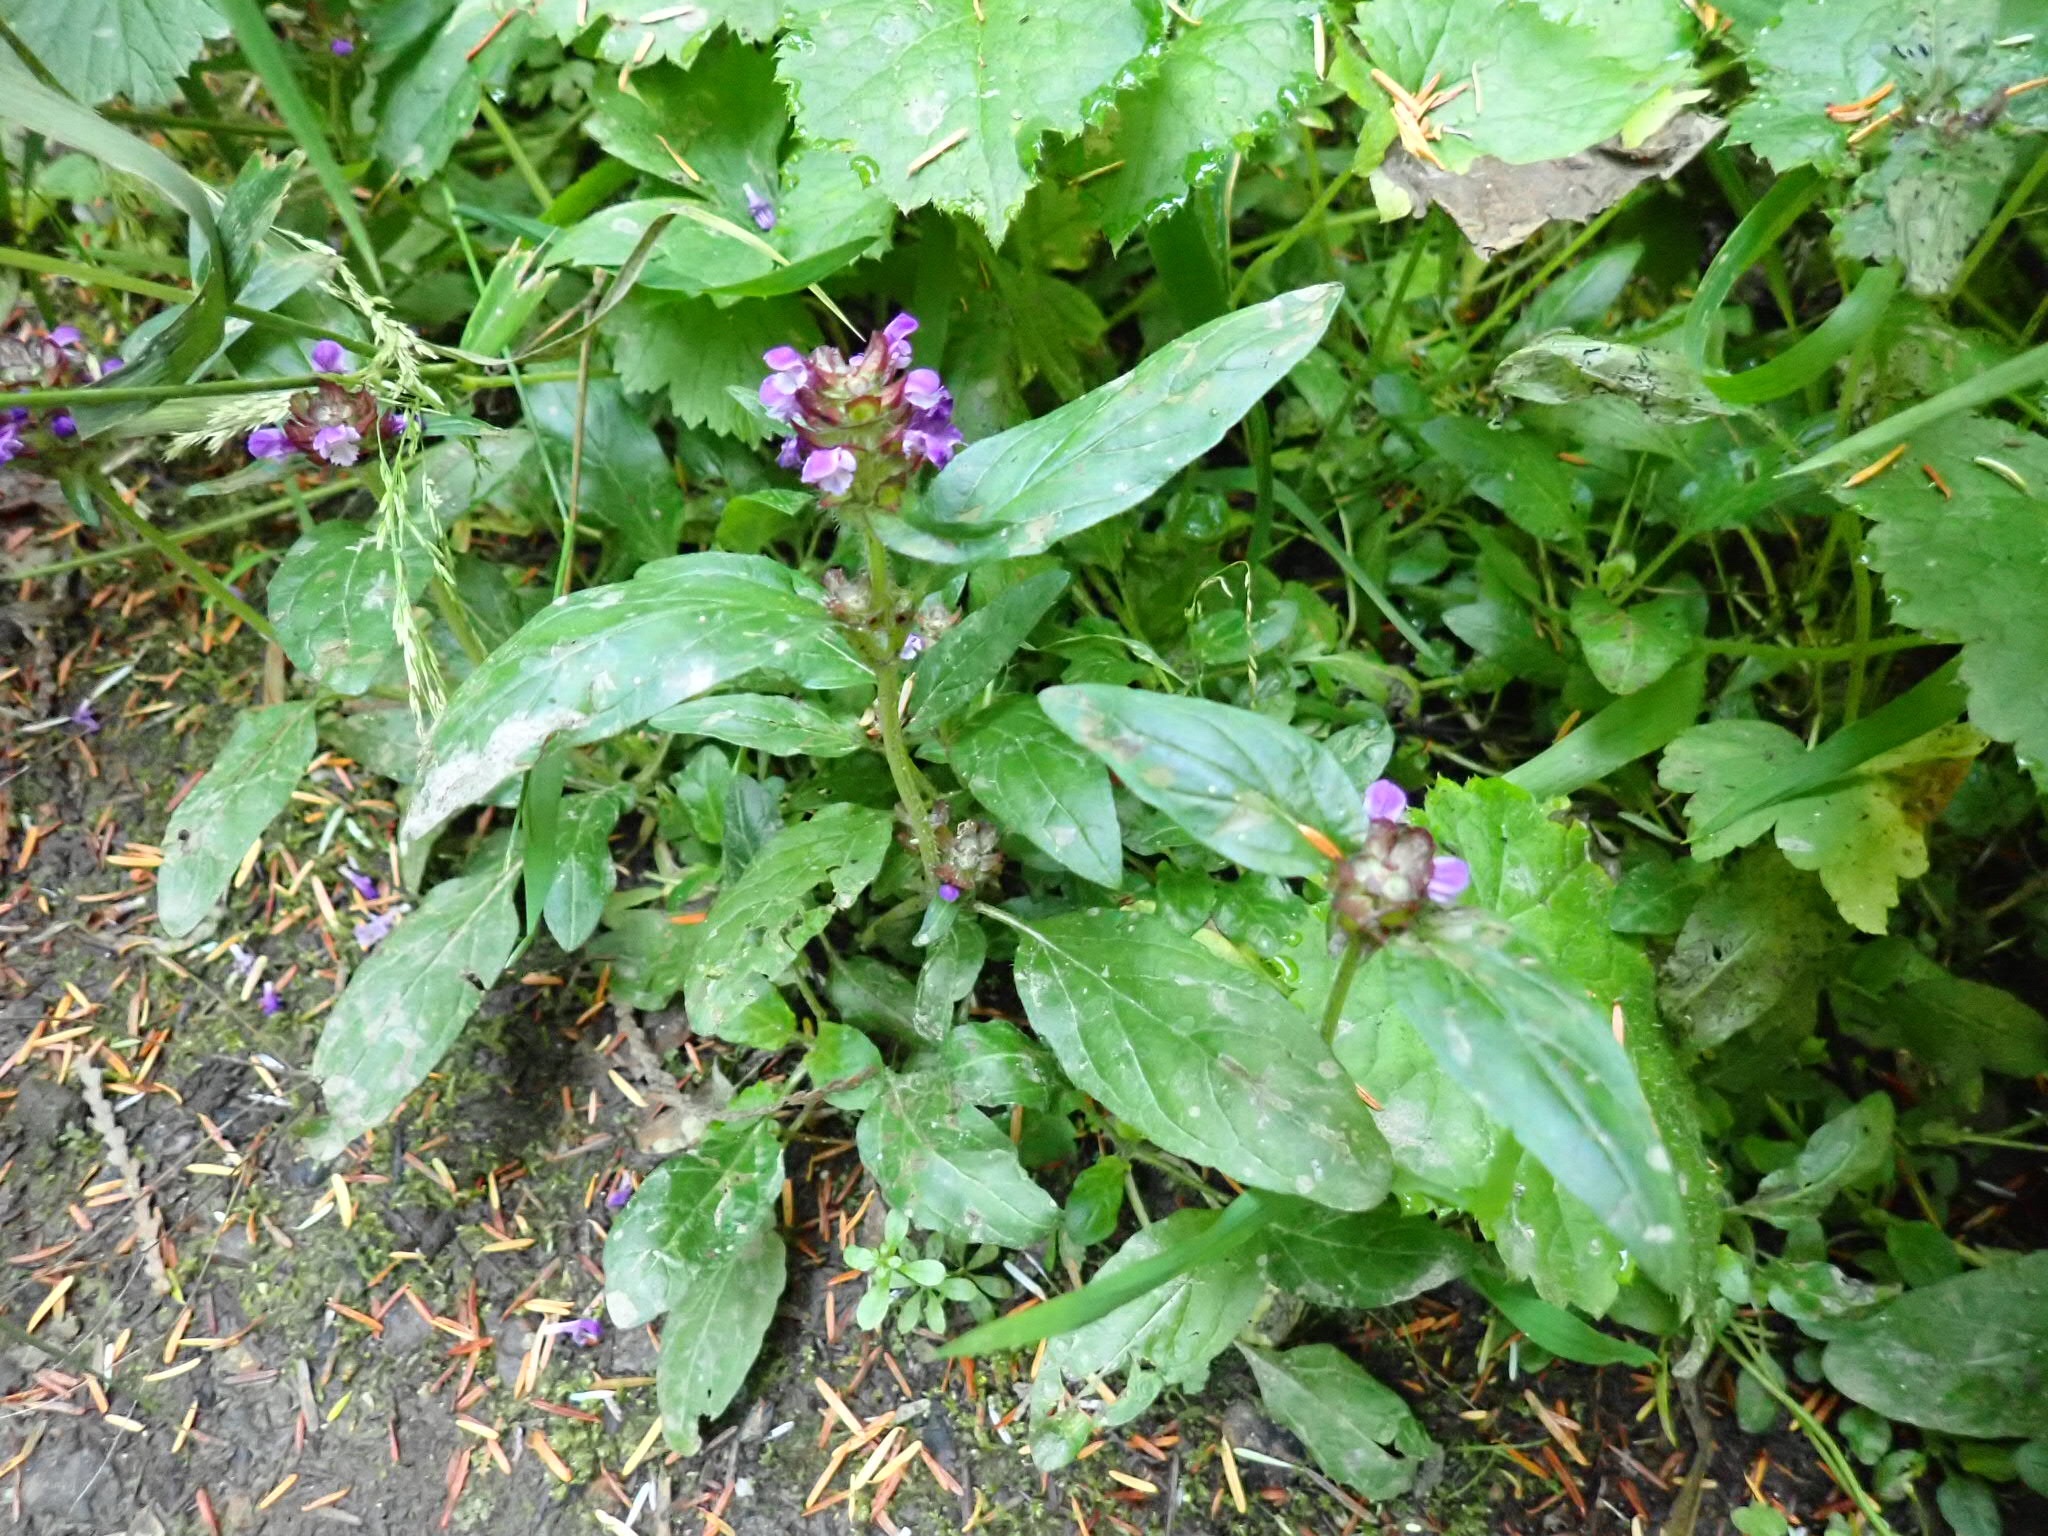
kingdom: Plantae
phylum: Tracheophyta
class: Magnoliopsida
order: Lamiales
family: Lamiaceae
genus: Prunella
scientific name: Prunella vulgaris
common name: Heal-all
